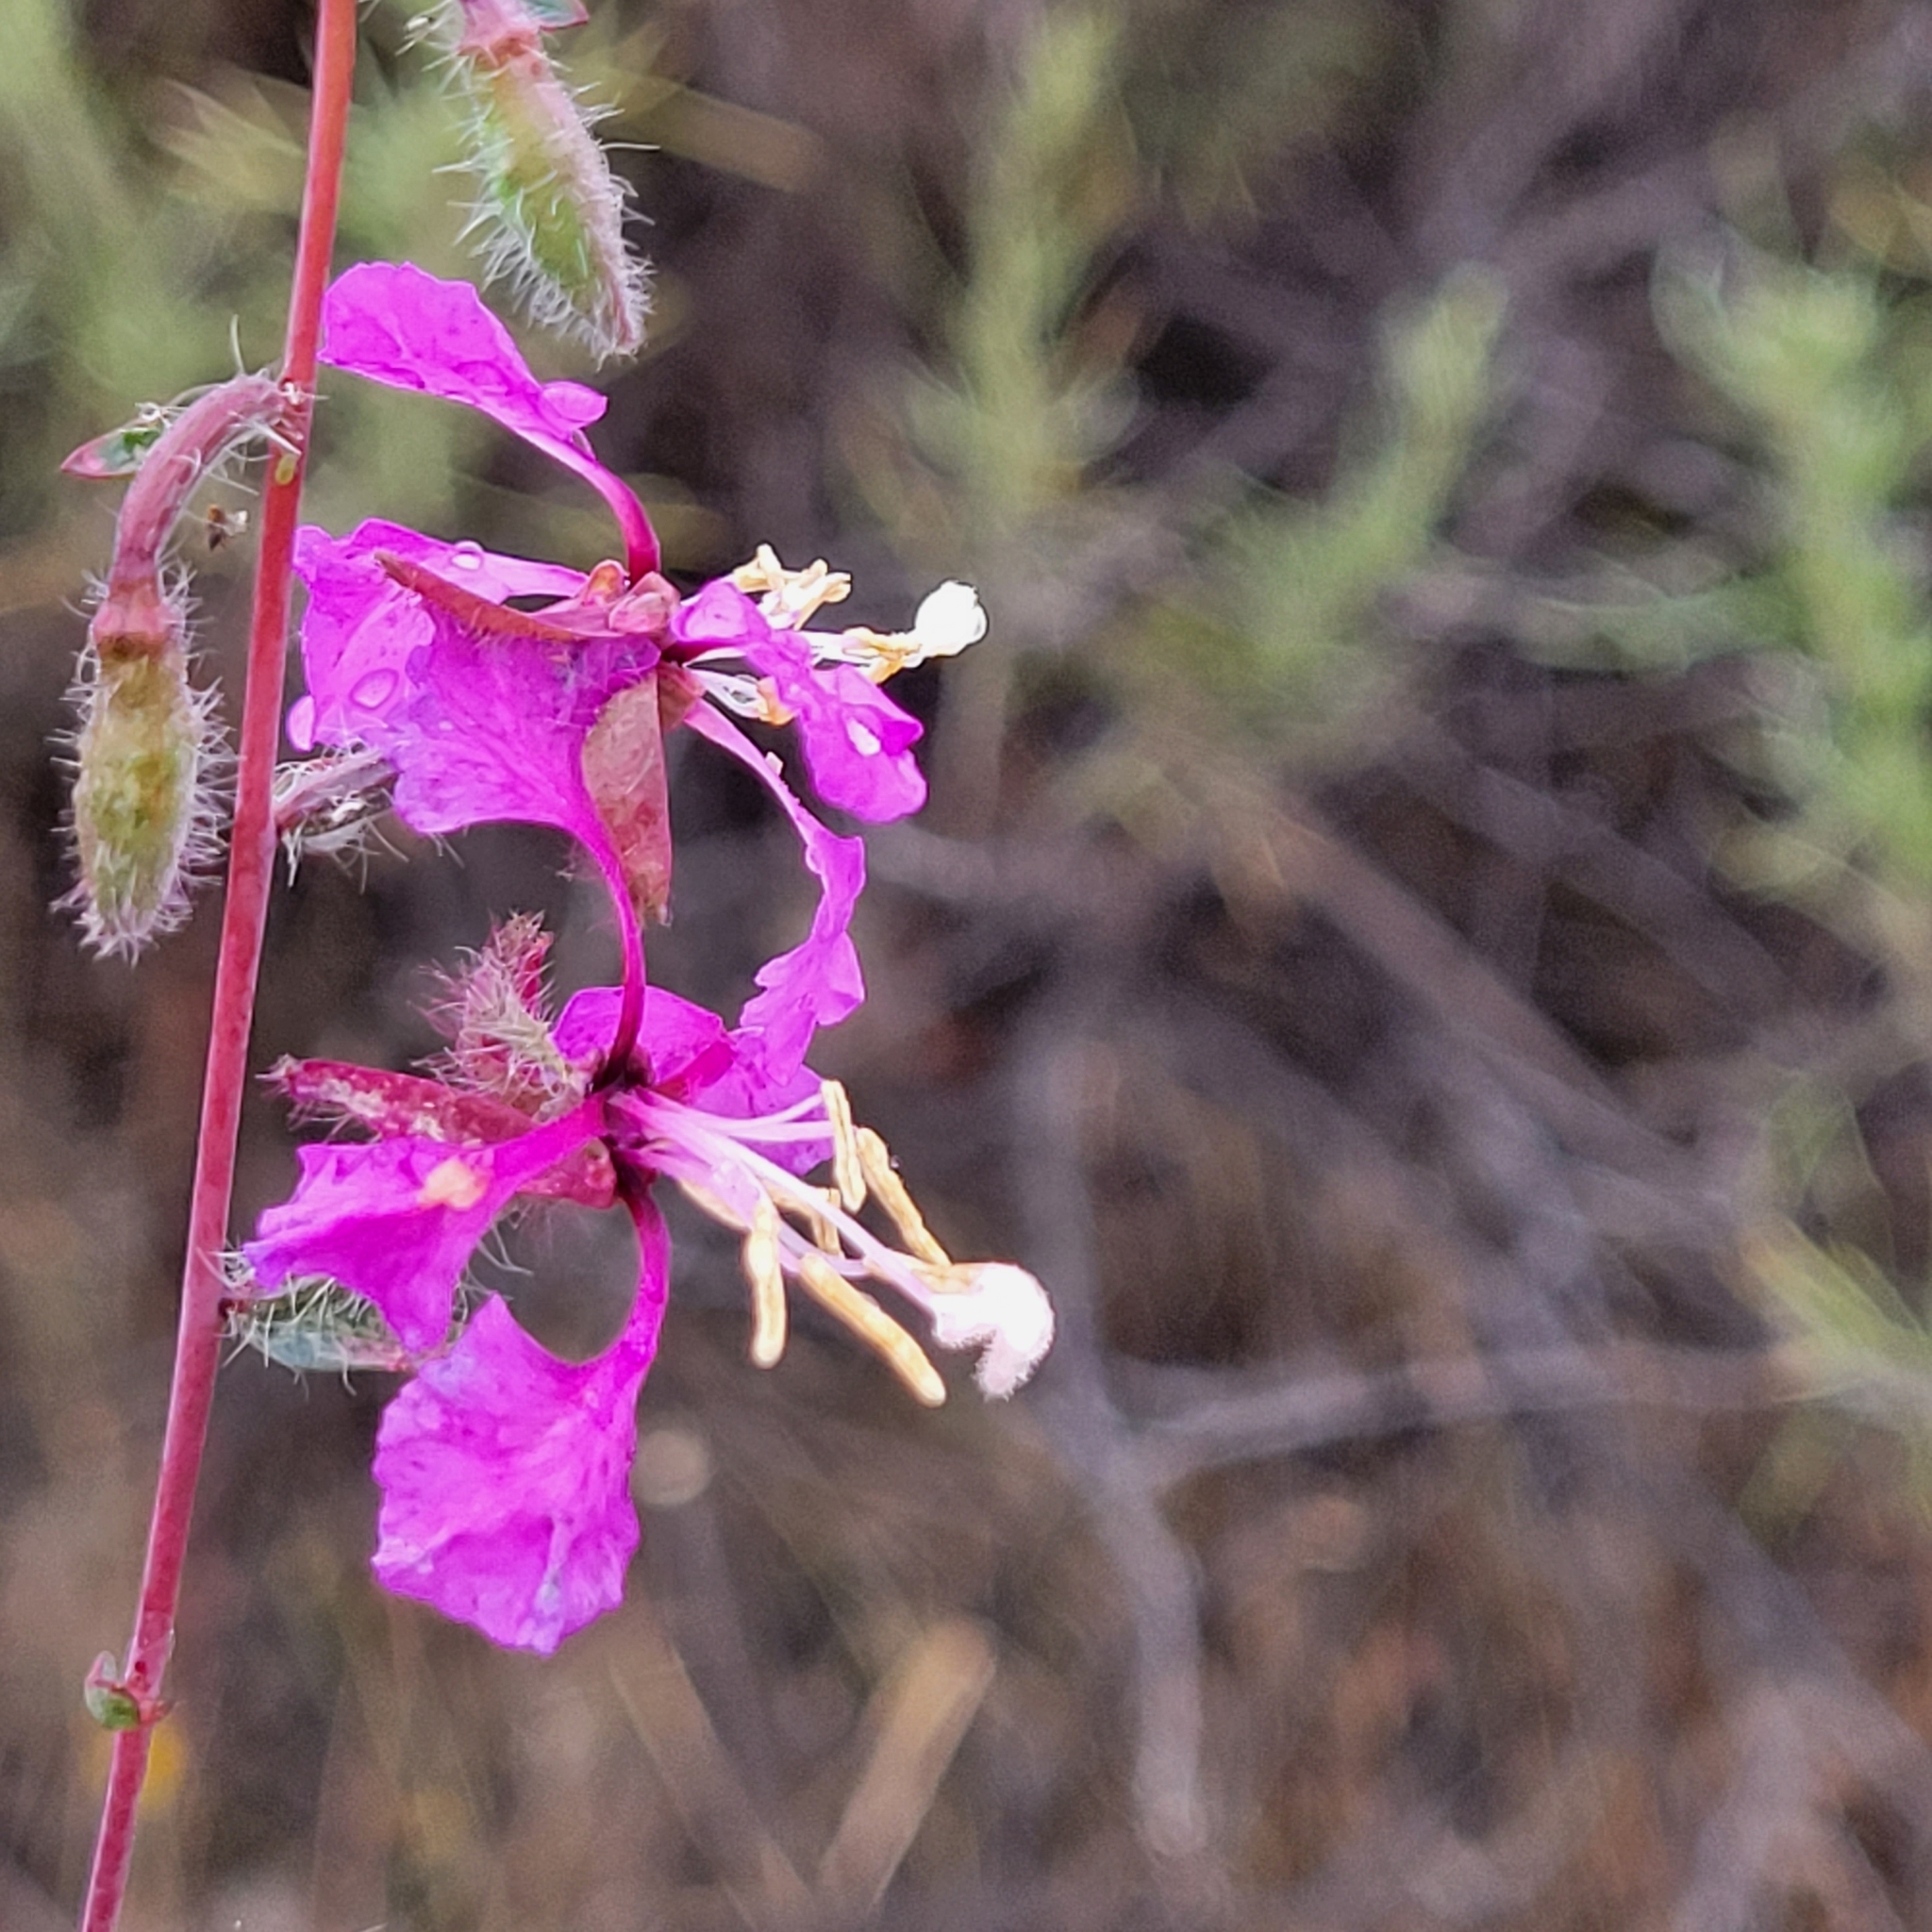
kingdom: Plantae
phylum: Tracheophyta
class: Magnoliopsida
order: Myrtales
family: Onagraceae
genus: Clarkia
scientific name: Clarkia unguiculata
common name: Clarkia
